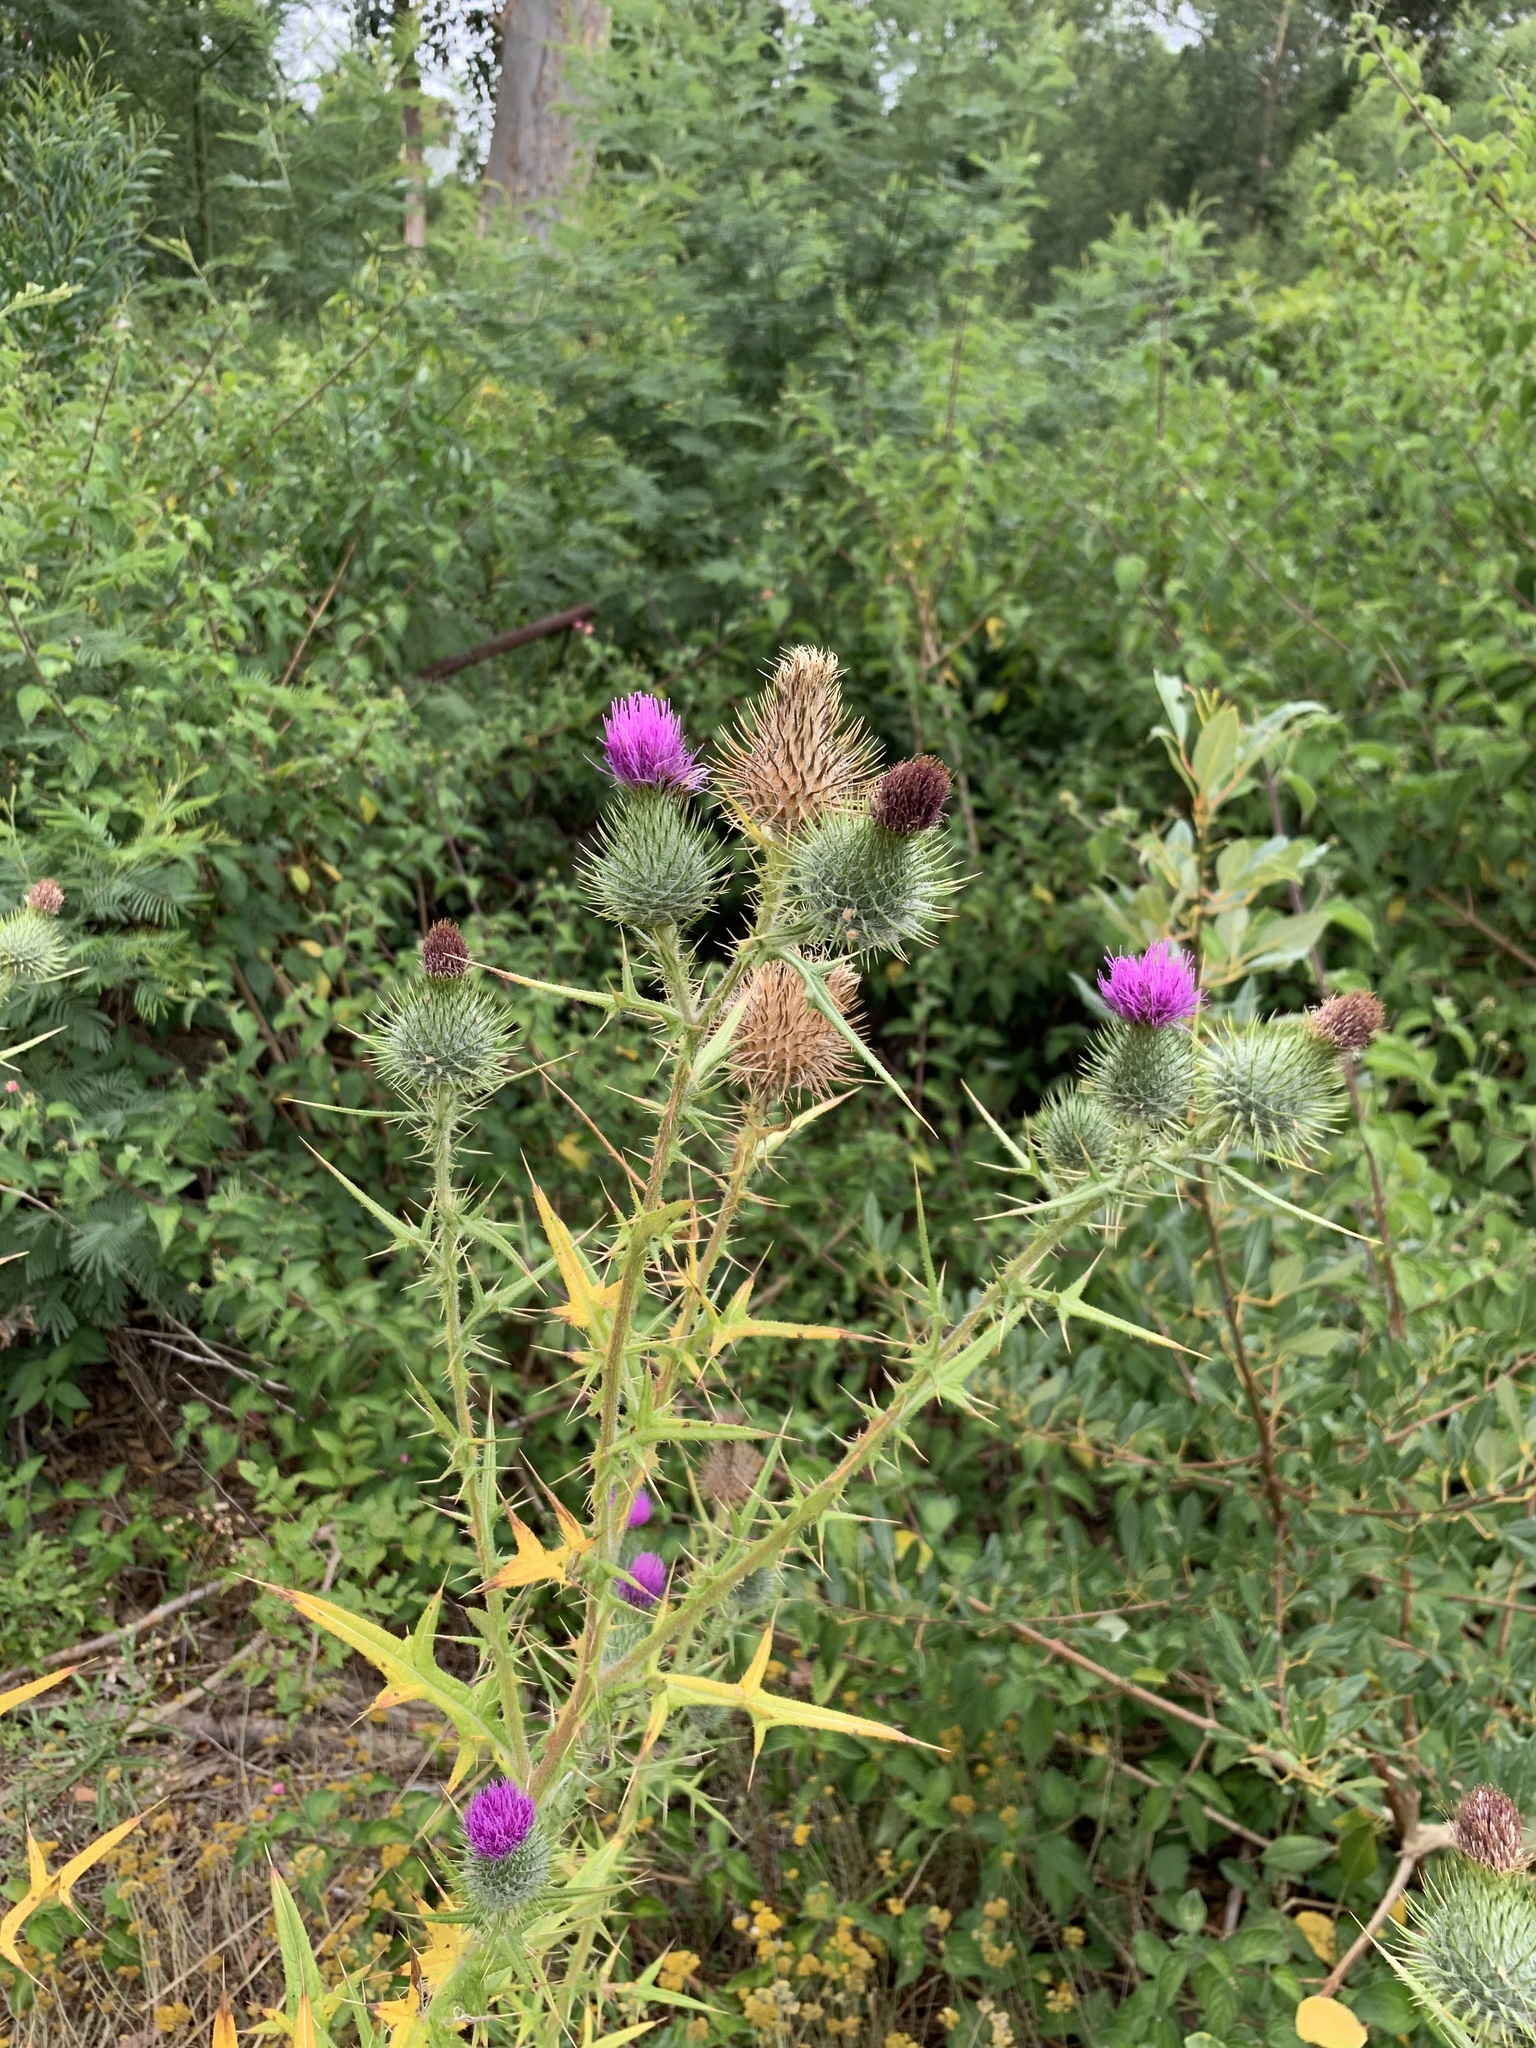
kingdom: Plantae
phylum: Tracheophyta
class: Magnoliopsida
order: Asterales
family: Asteraceae
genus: Cirsium
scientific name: Cirsium vulgare
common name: Bull thistle
